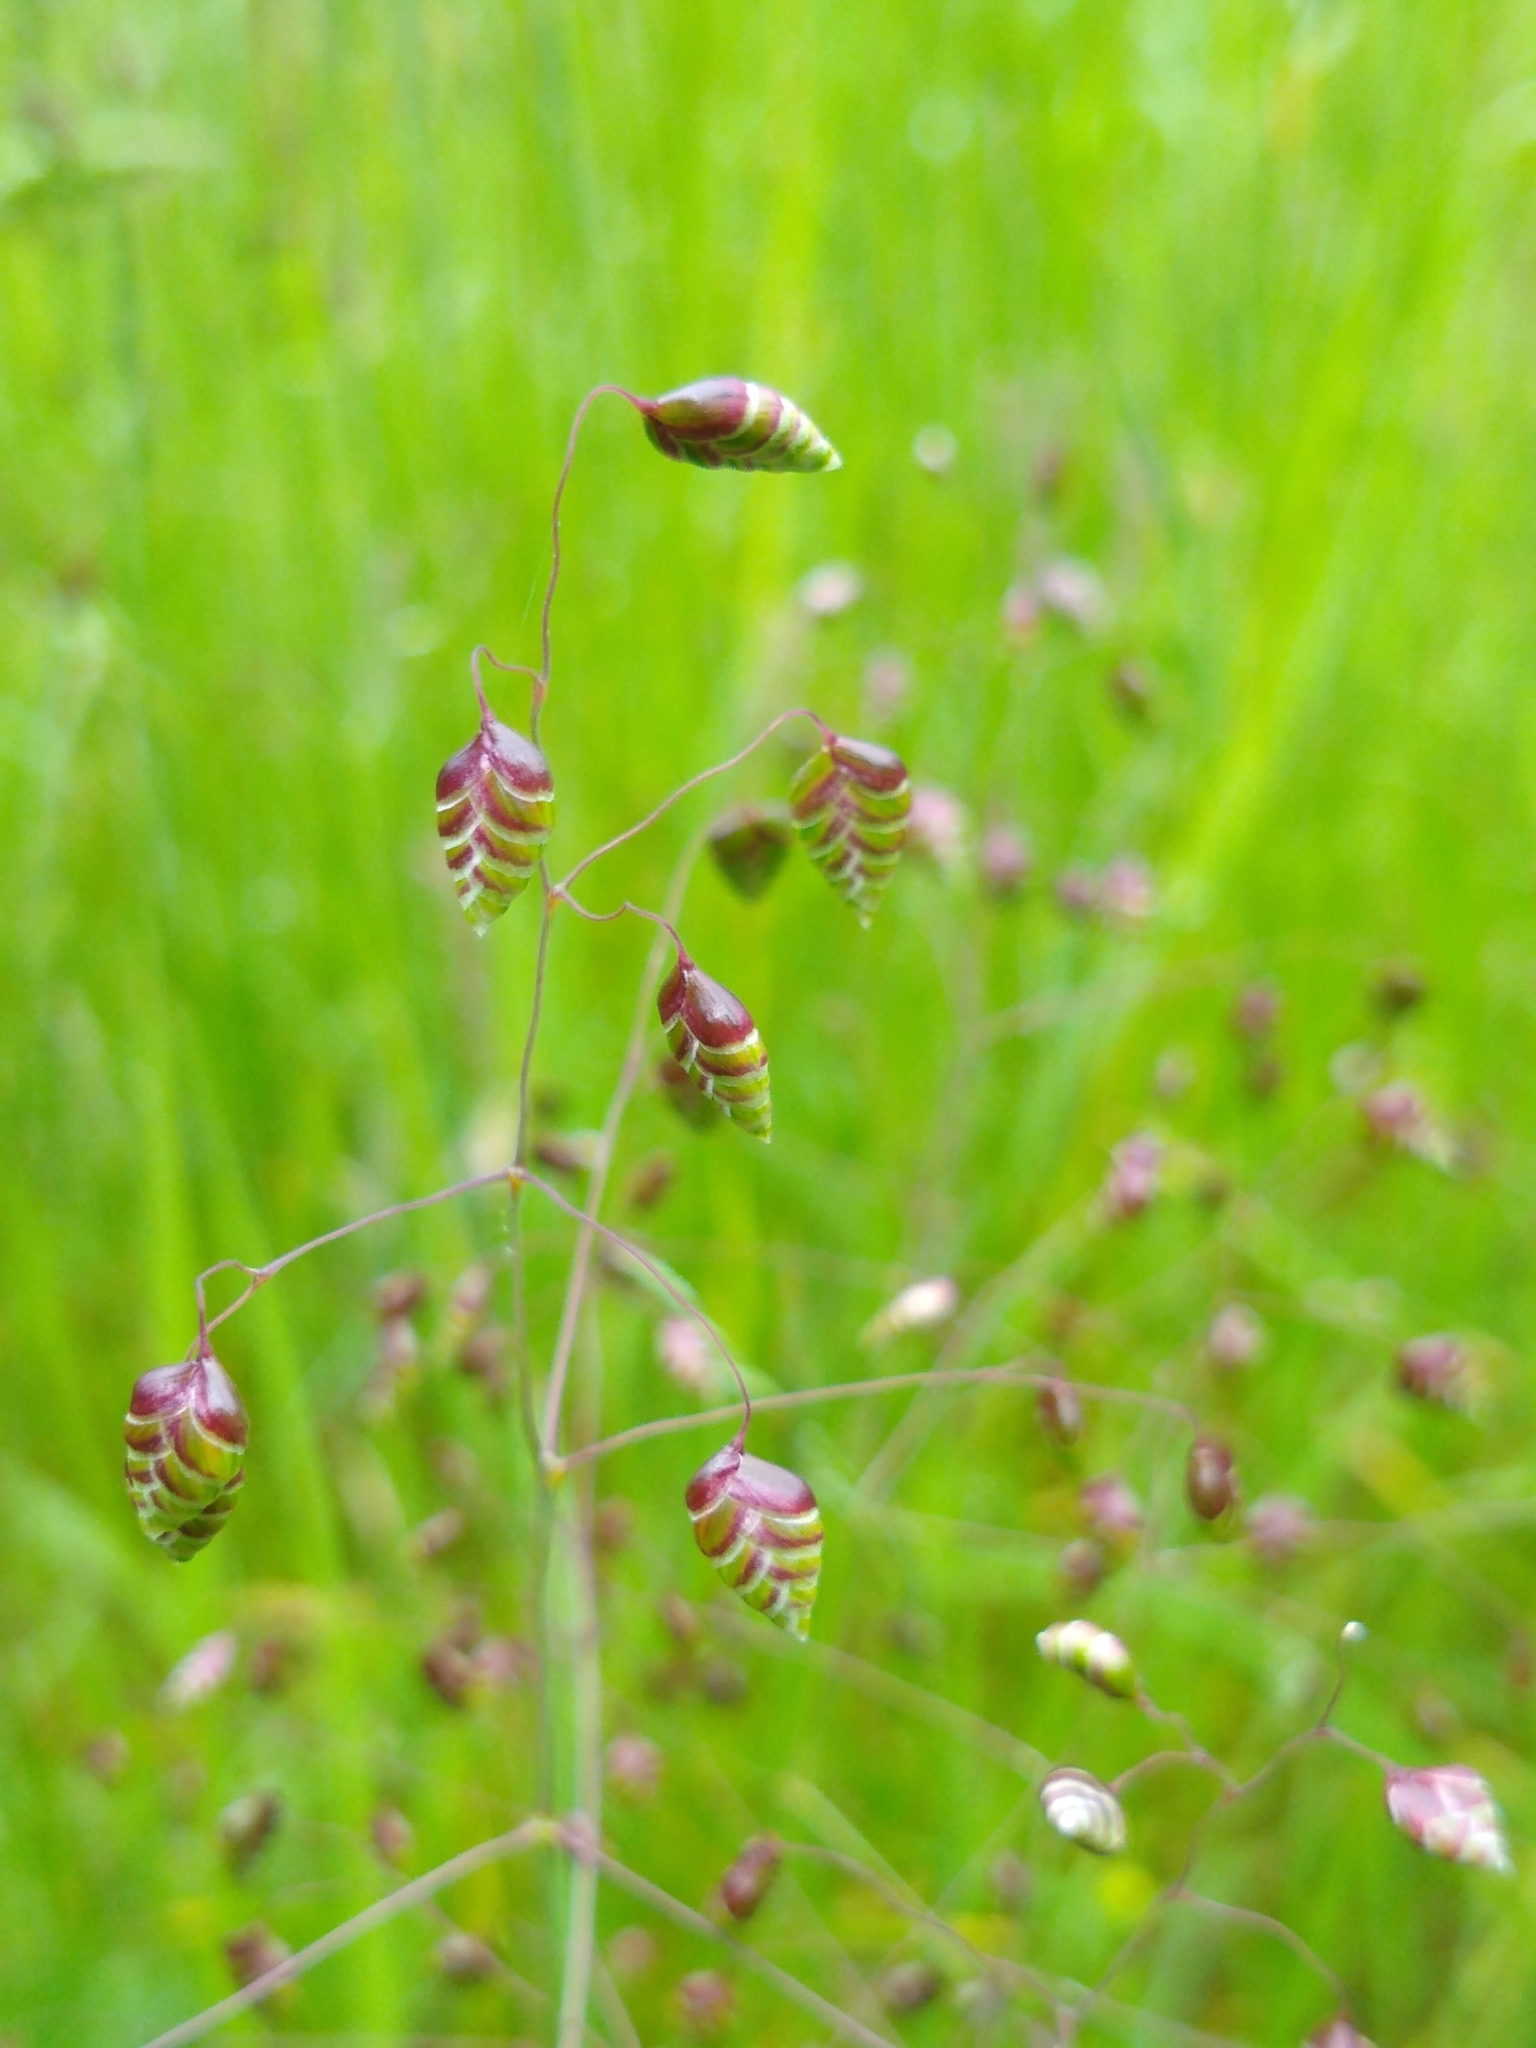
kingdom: Plantae
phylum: Tracheophyta
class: Liliopsida
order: Poales
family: Poaceae
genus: Briza
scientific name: Briza media
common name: Quaking grass
